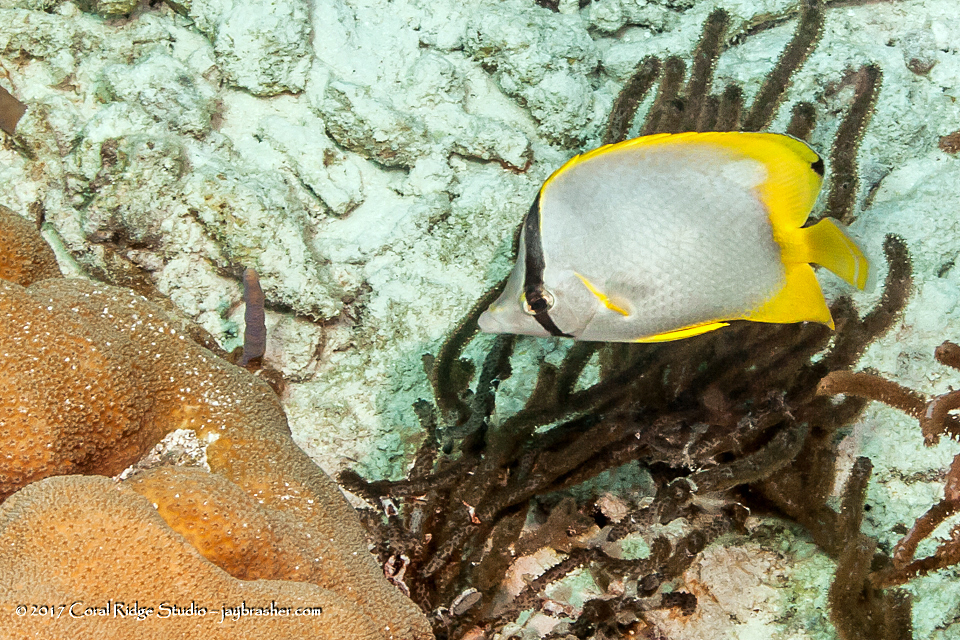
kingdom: Animalia
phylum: Chordata
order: Perciformes
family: Chaetodontidae
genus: Chaetodon
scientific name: Chaetodon ocellatus
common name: Spotfin butterflyfish
